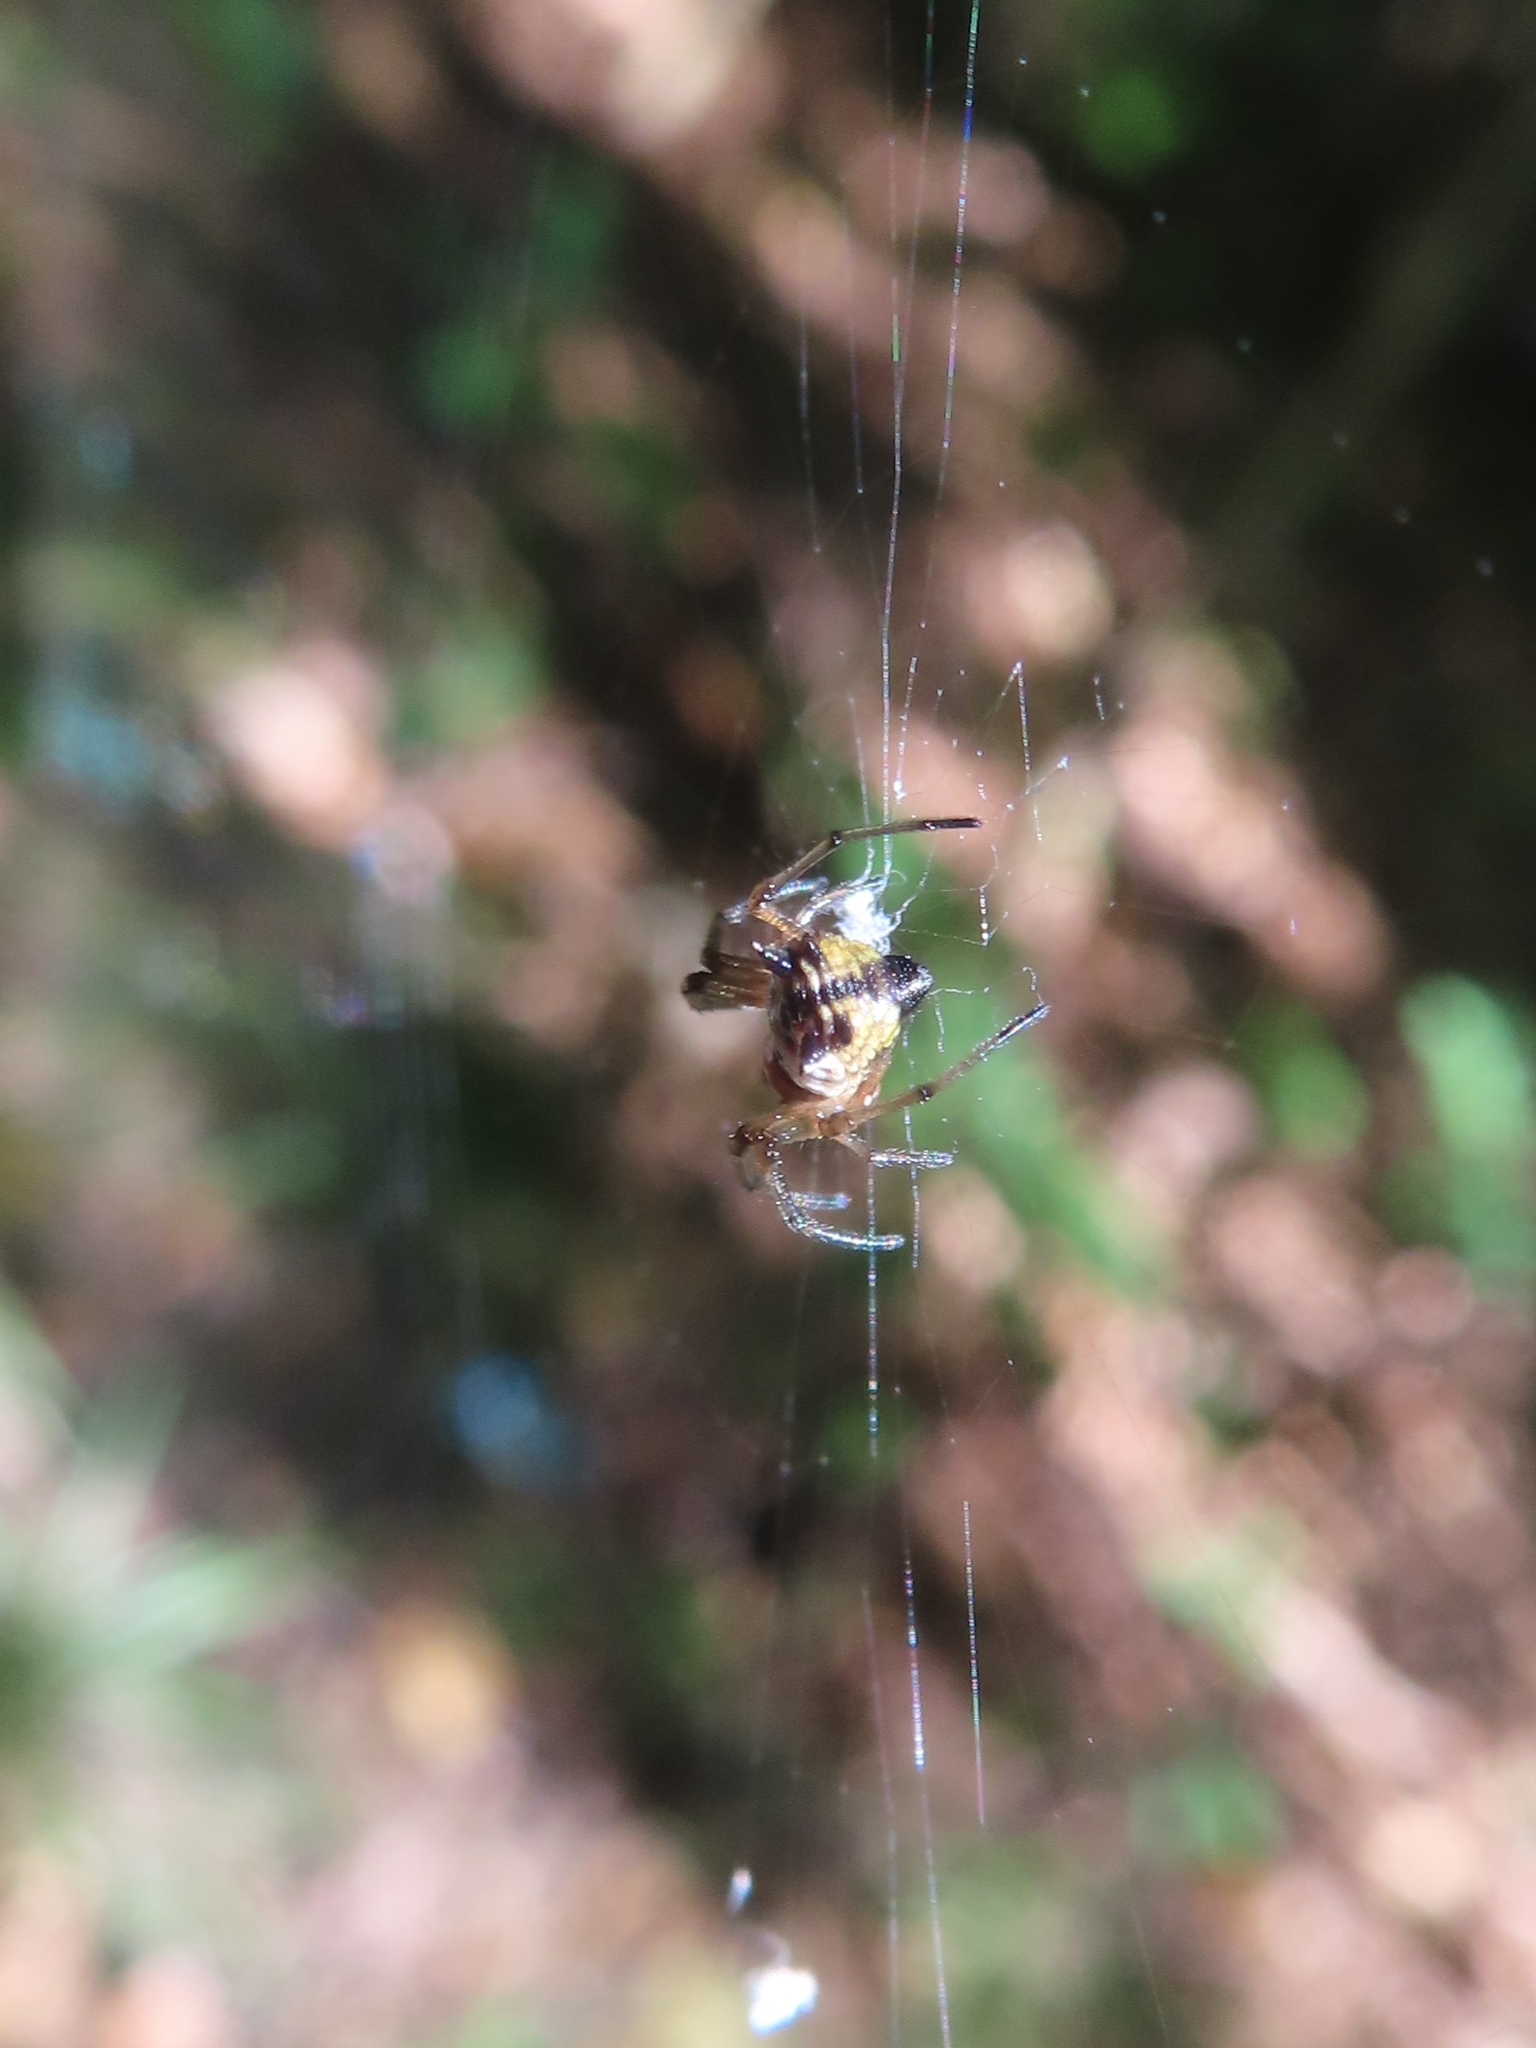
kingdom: Animalia
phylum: Arthropoda
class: Arachnida
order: Araneae
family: Araneidae
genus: Micrathena
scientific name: Micrathena mitrata
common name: Orb weavers
